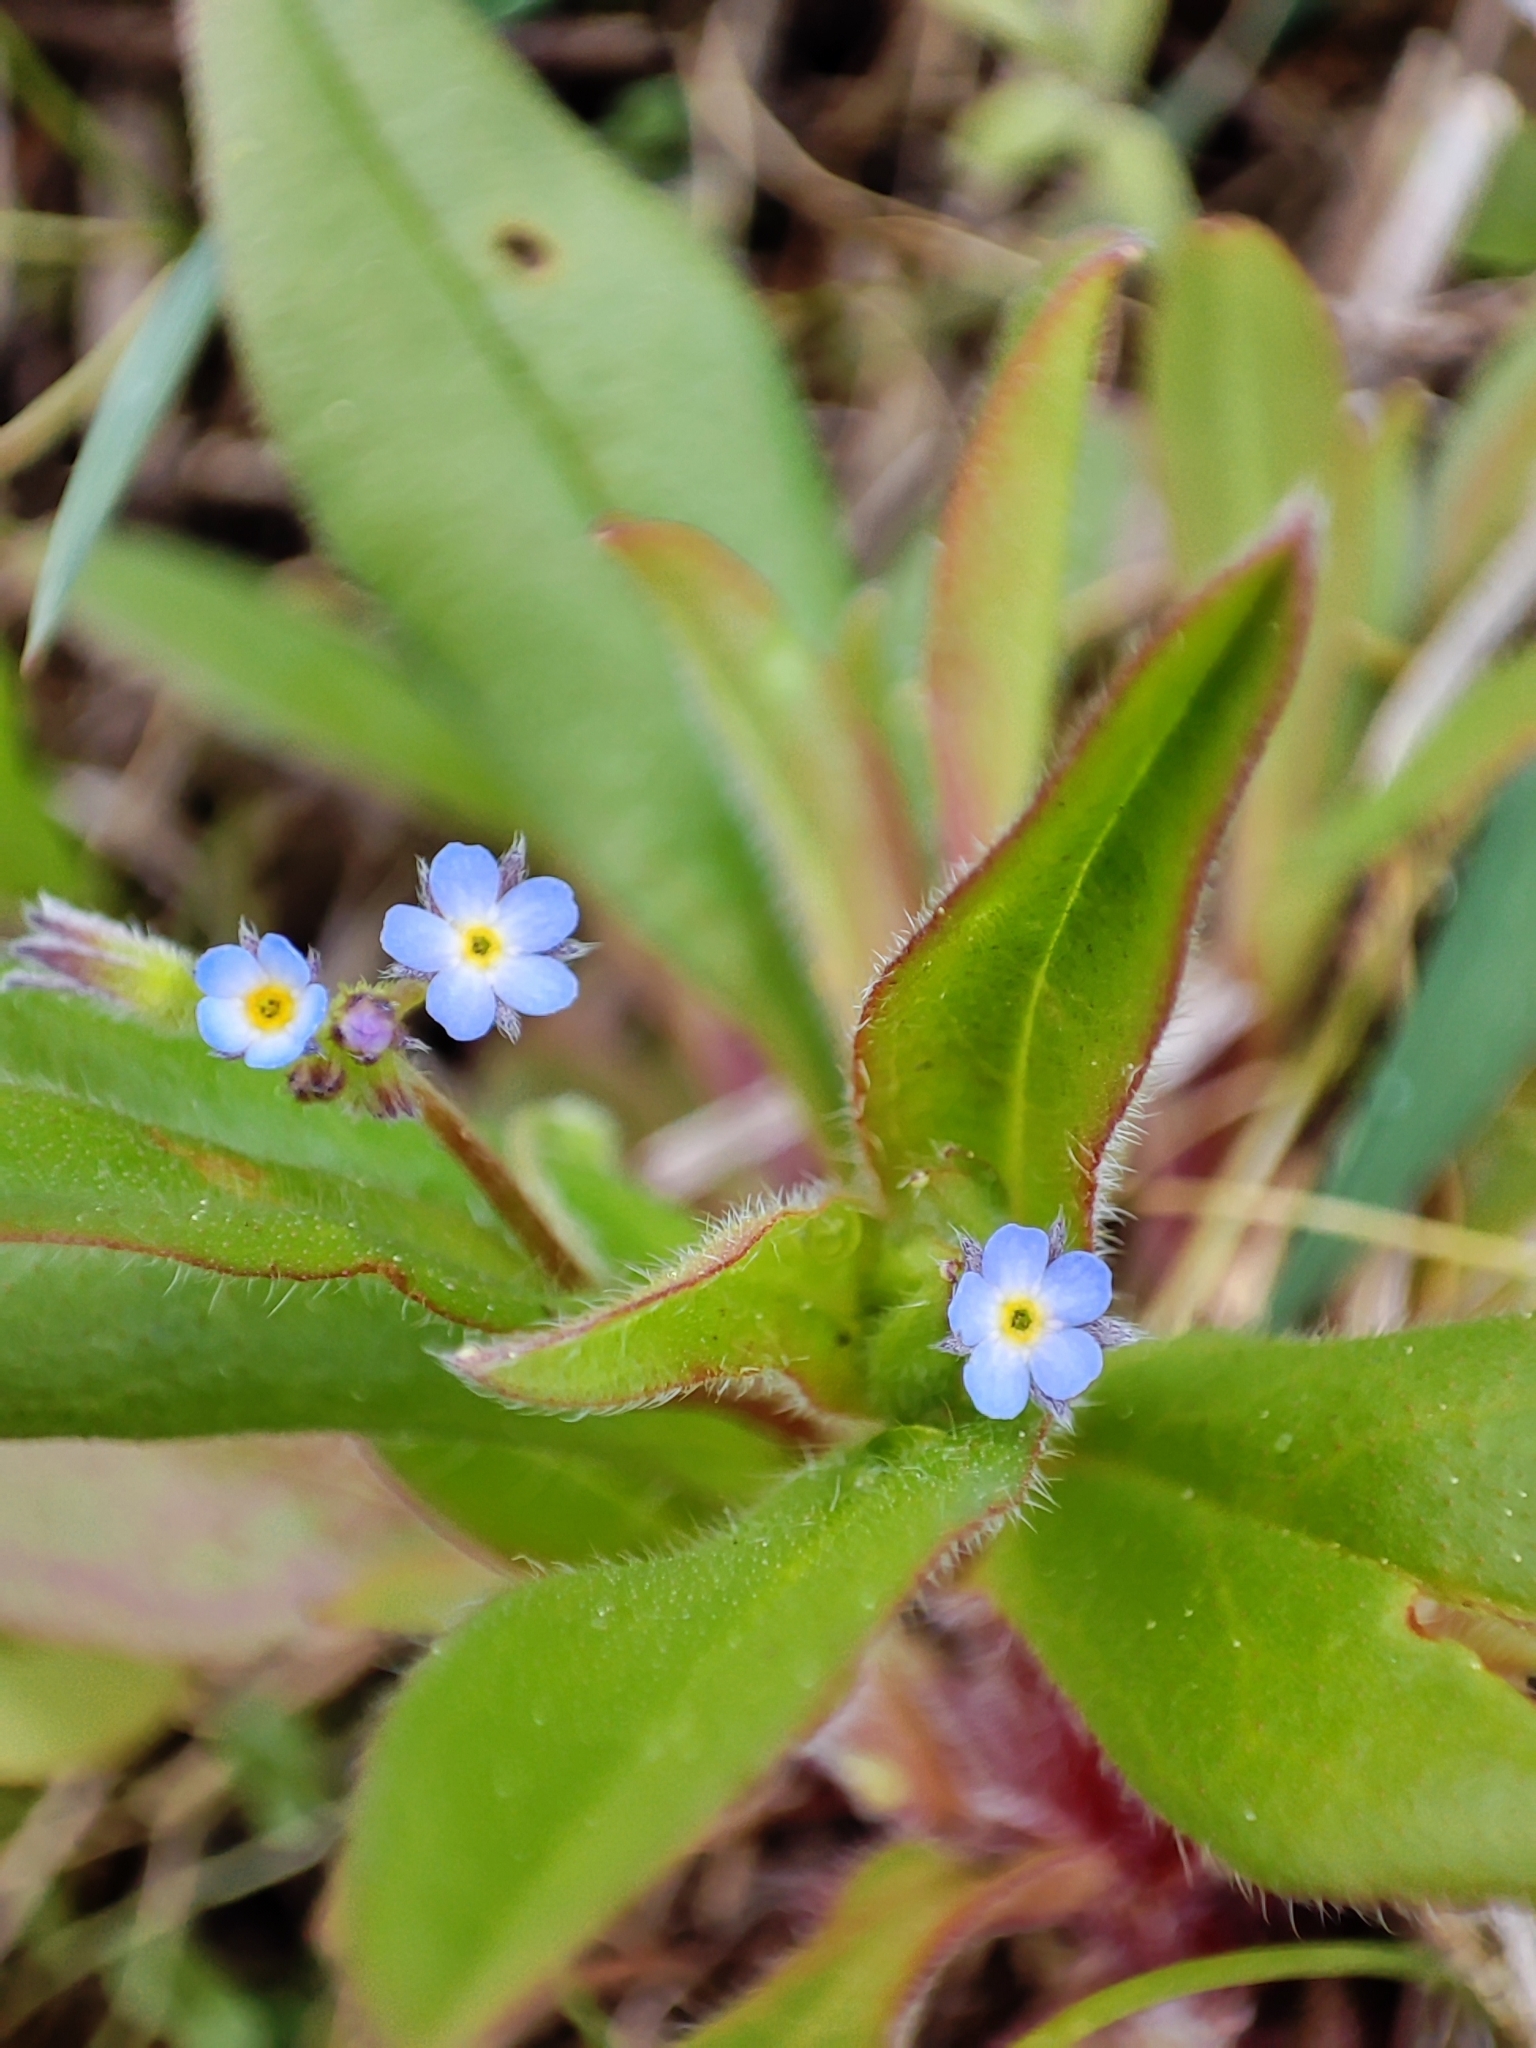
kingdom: Plantae
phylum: Tracheophyta
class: Magnoliopsida
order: Boraginales
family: Boraginaceae
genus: Myosotis
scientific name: Myosotis sparsiflora
